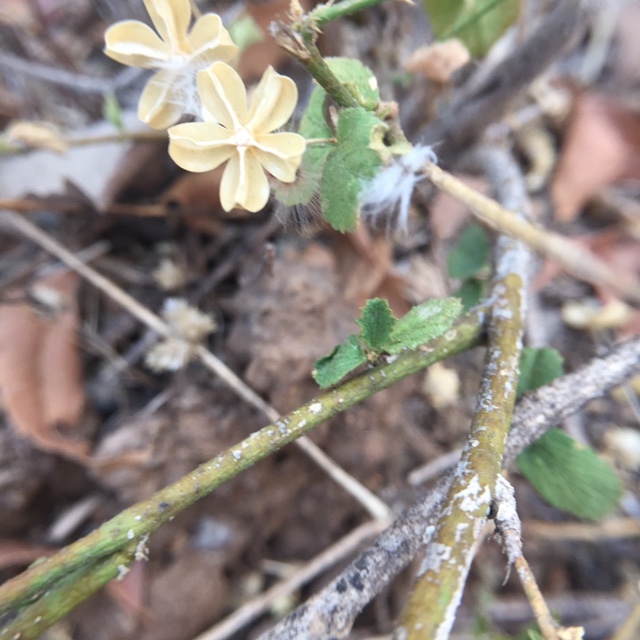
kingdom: Plantae
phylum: Tracheophyta
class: Magnoliopsida
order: Malvales
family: Malvaceae
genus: Hibiscus
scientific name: Hibiscus hirtus
